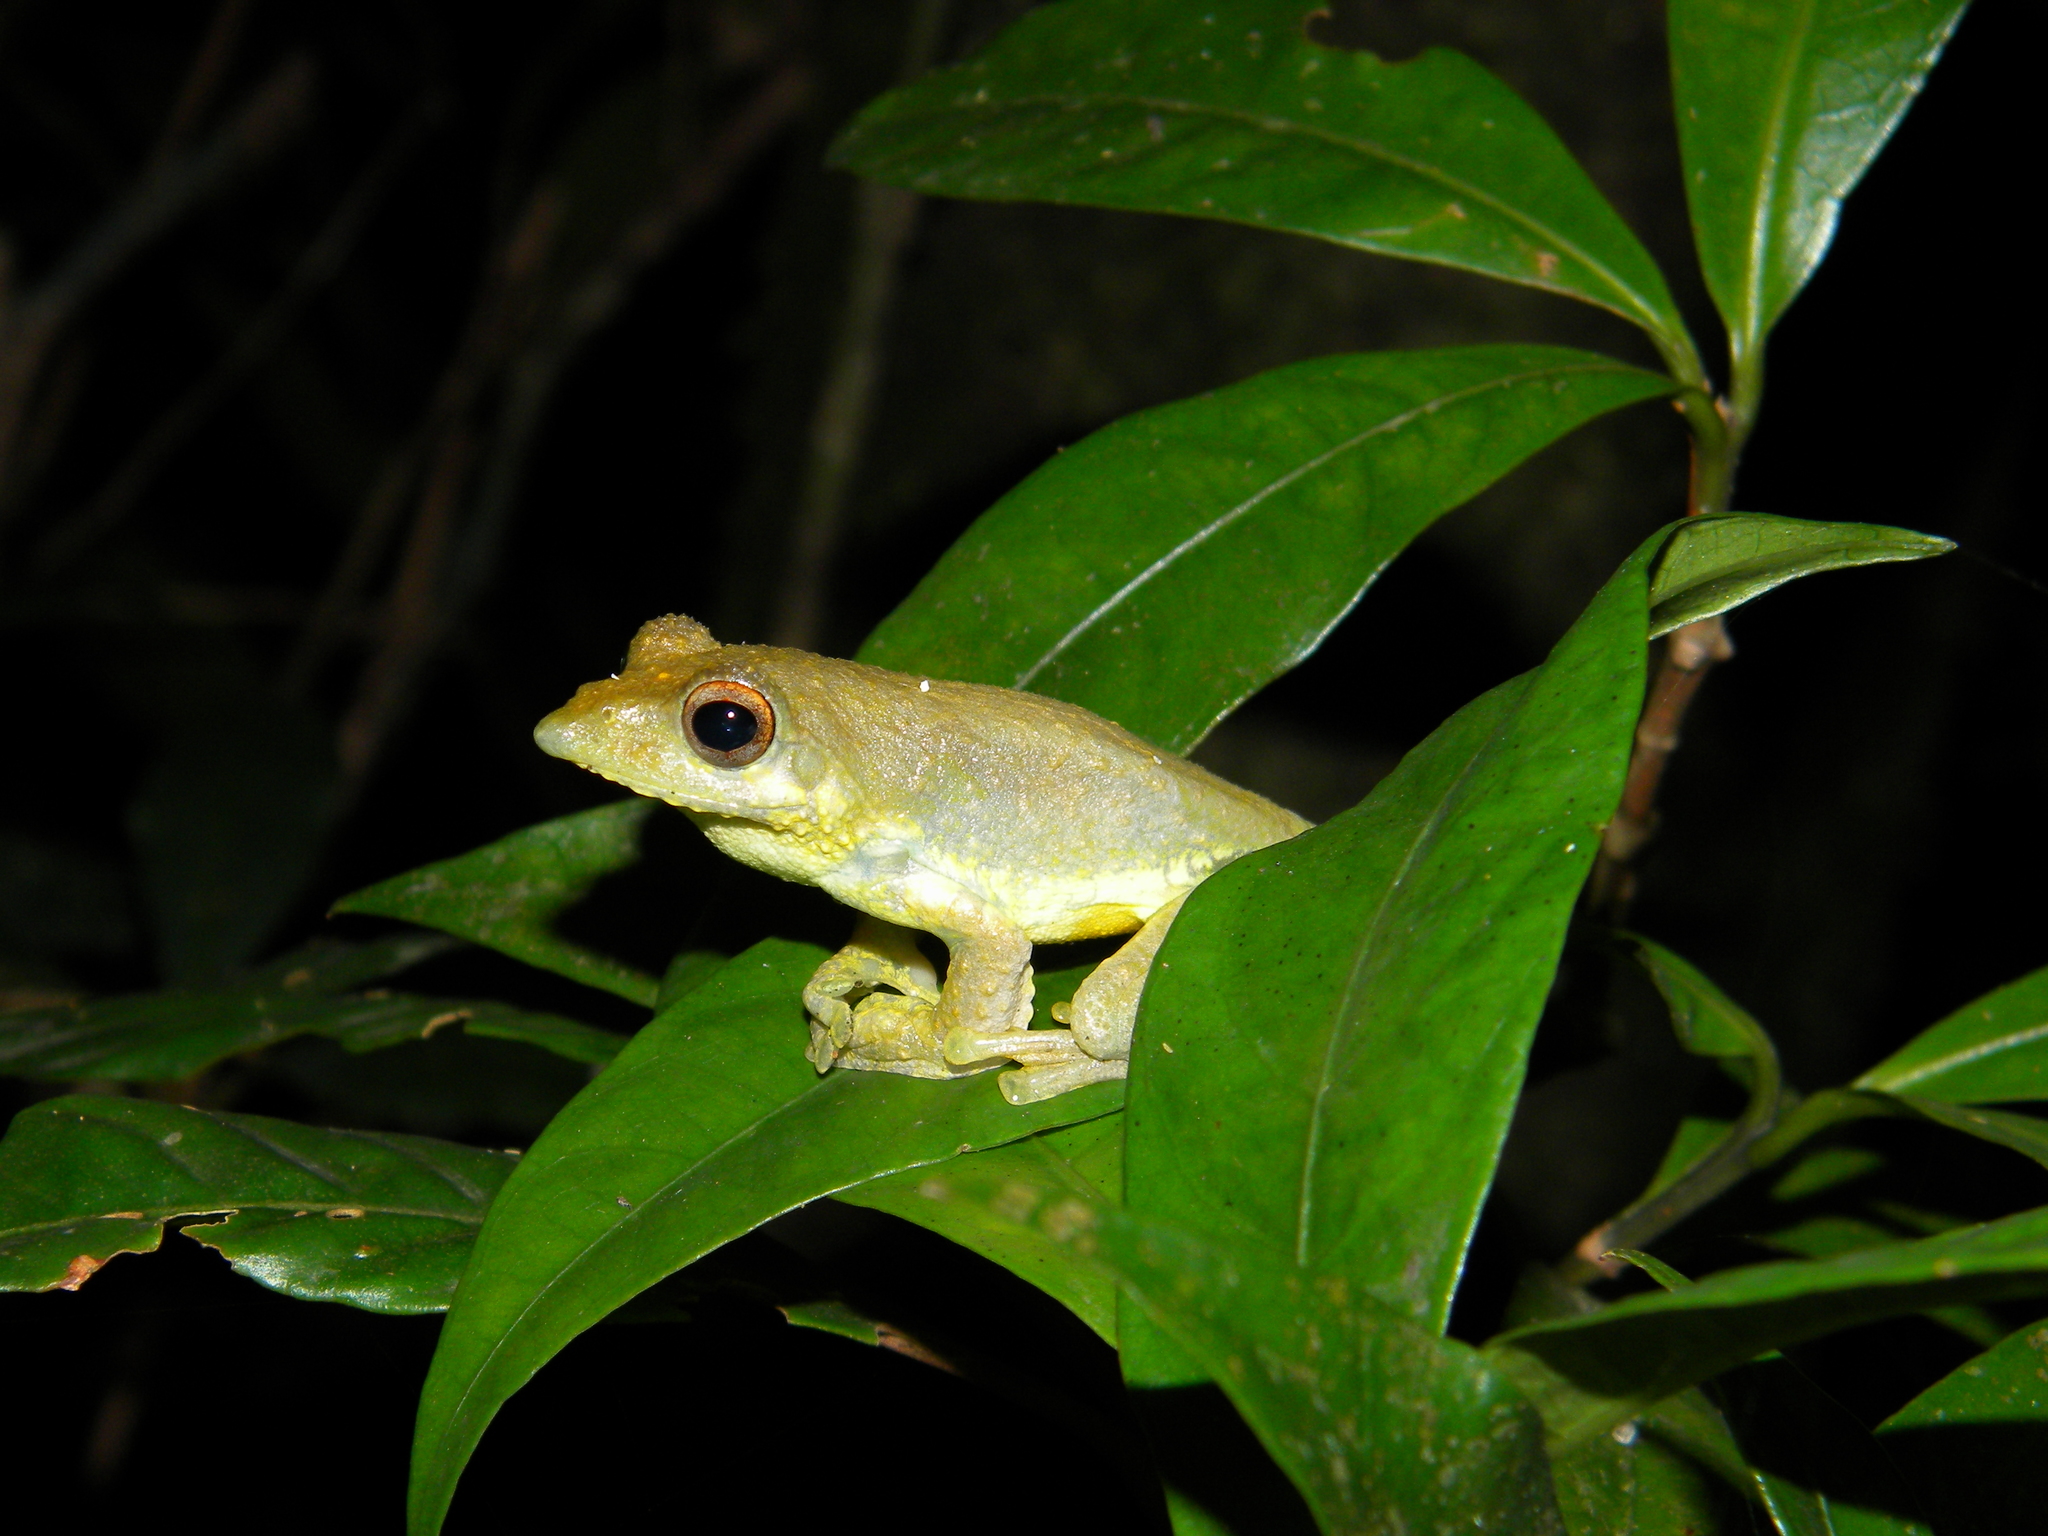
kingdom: Animalia
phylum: Chordata
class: Amphibia
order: Anura
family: Rhacophoridae
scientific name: Rhacophoridae
